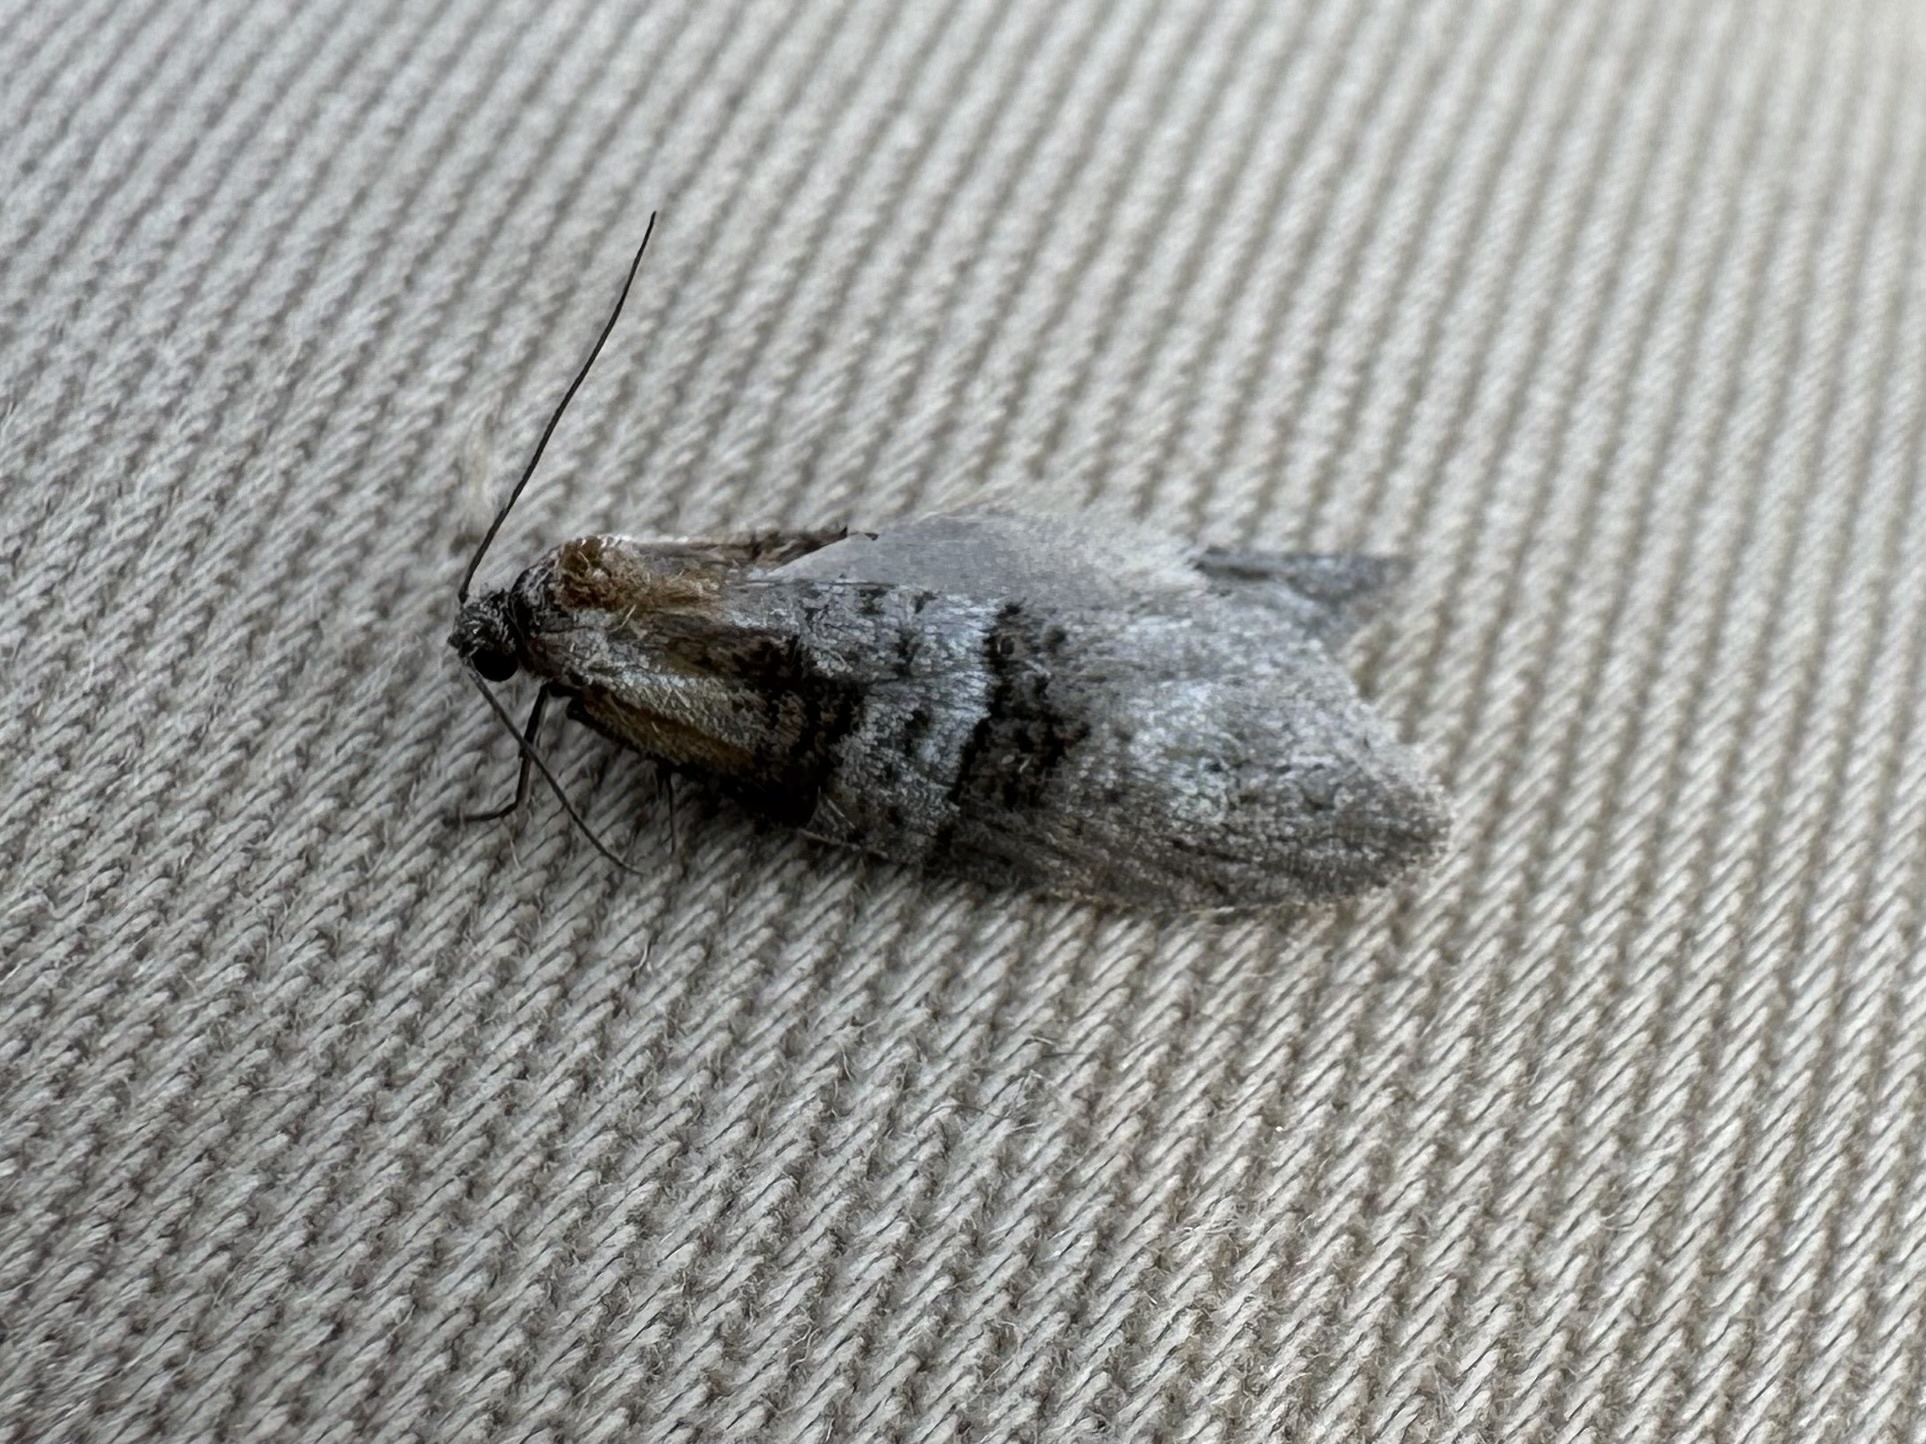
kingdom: Animalia
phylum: Arthropoda
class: Insecta
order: Lepidoptera
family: Tortricidae
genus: Decodes
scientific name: Decodes macdunnoughi
